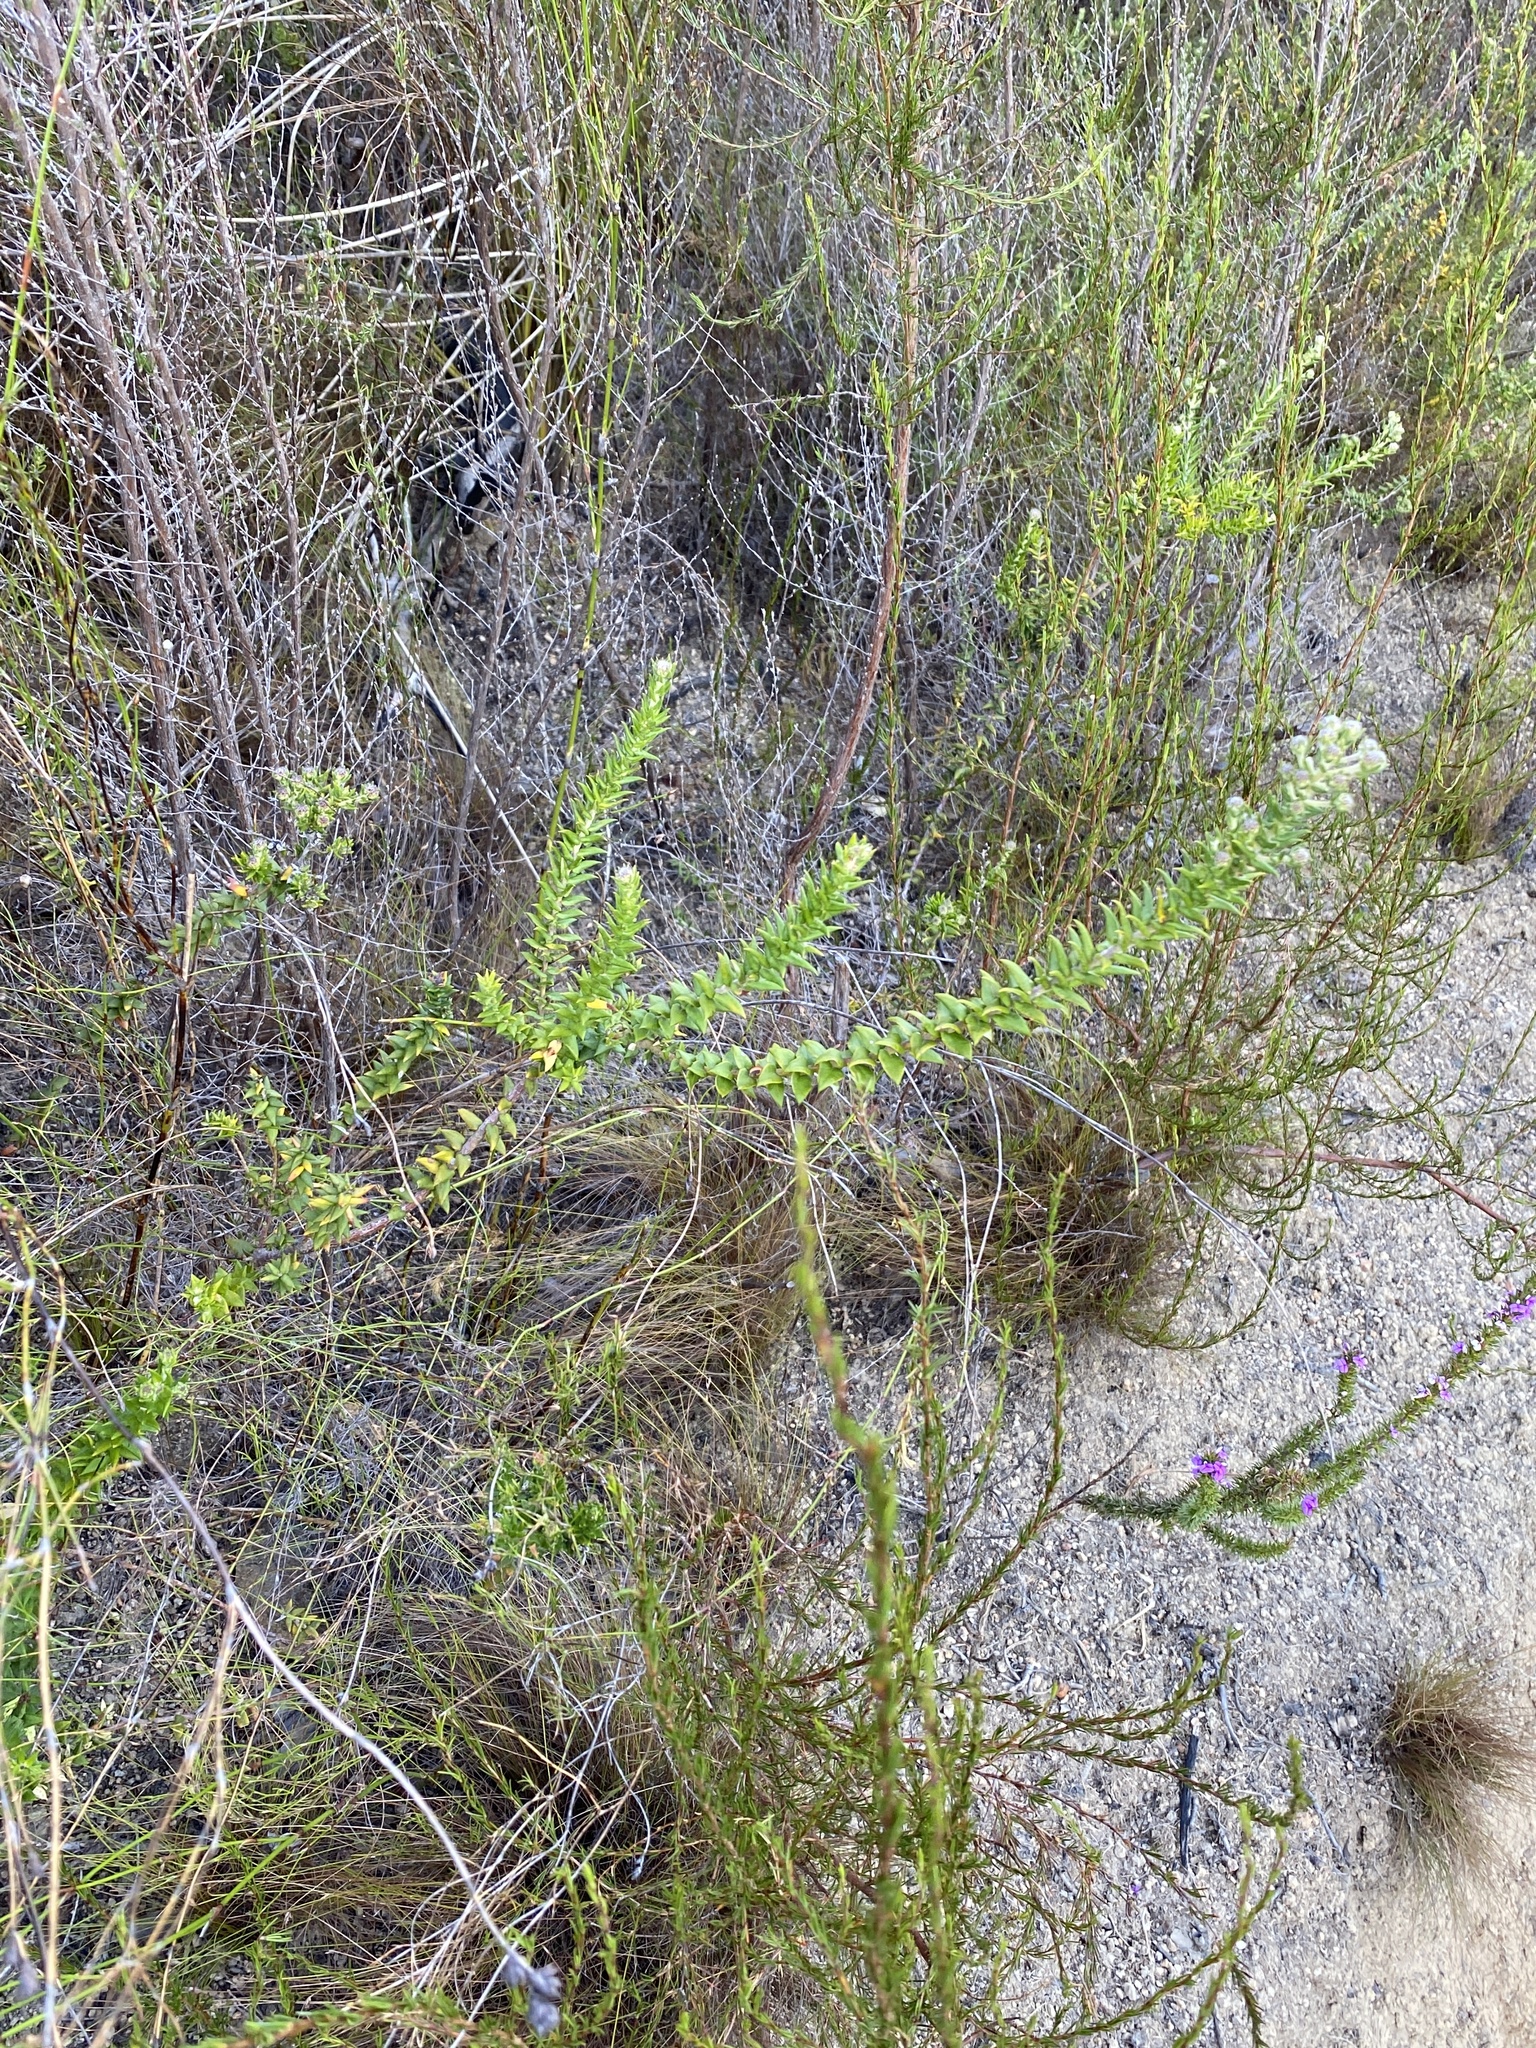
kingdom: Plantae
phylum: Tracheophyta
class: Magnoliopsida
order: Rosales
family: Rhamnaceae
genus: Phylica
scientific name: Phylica callosa
